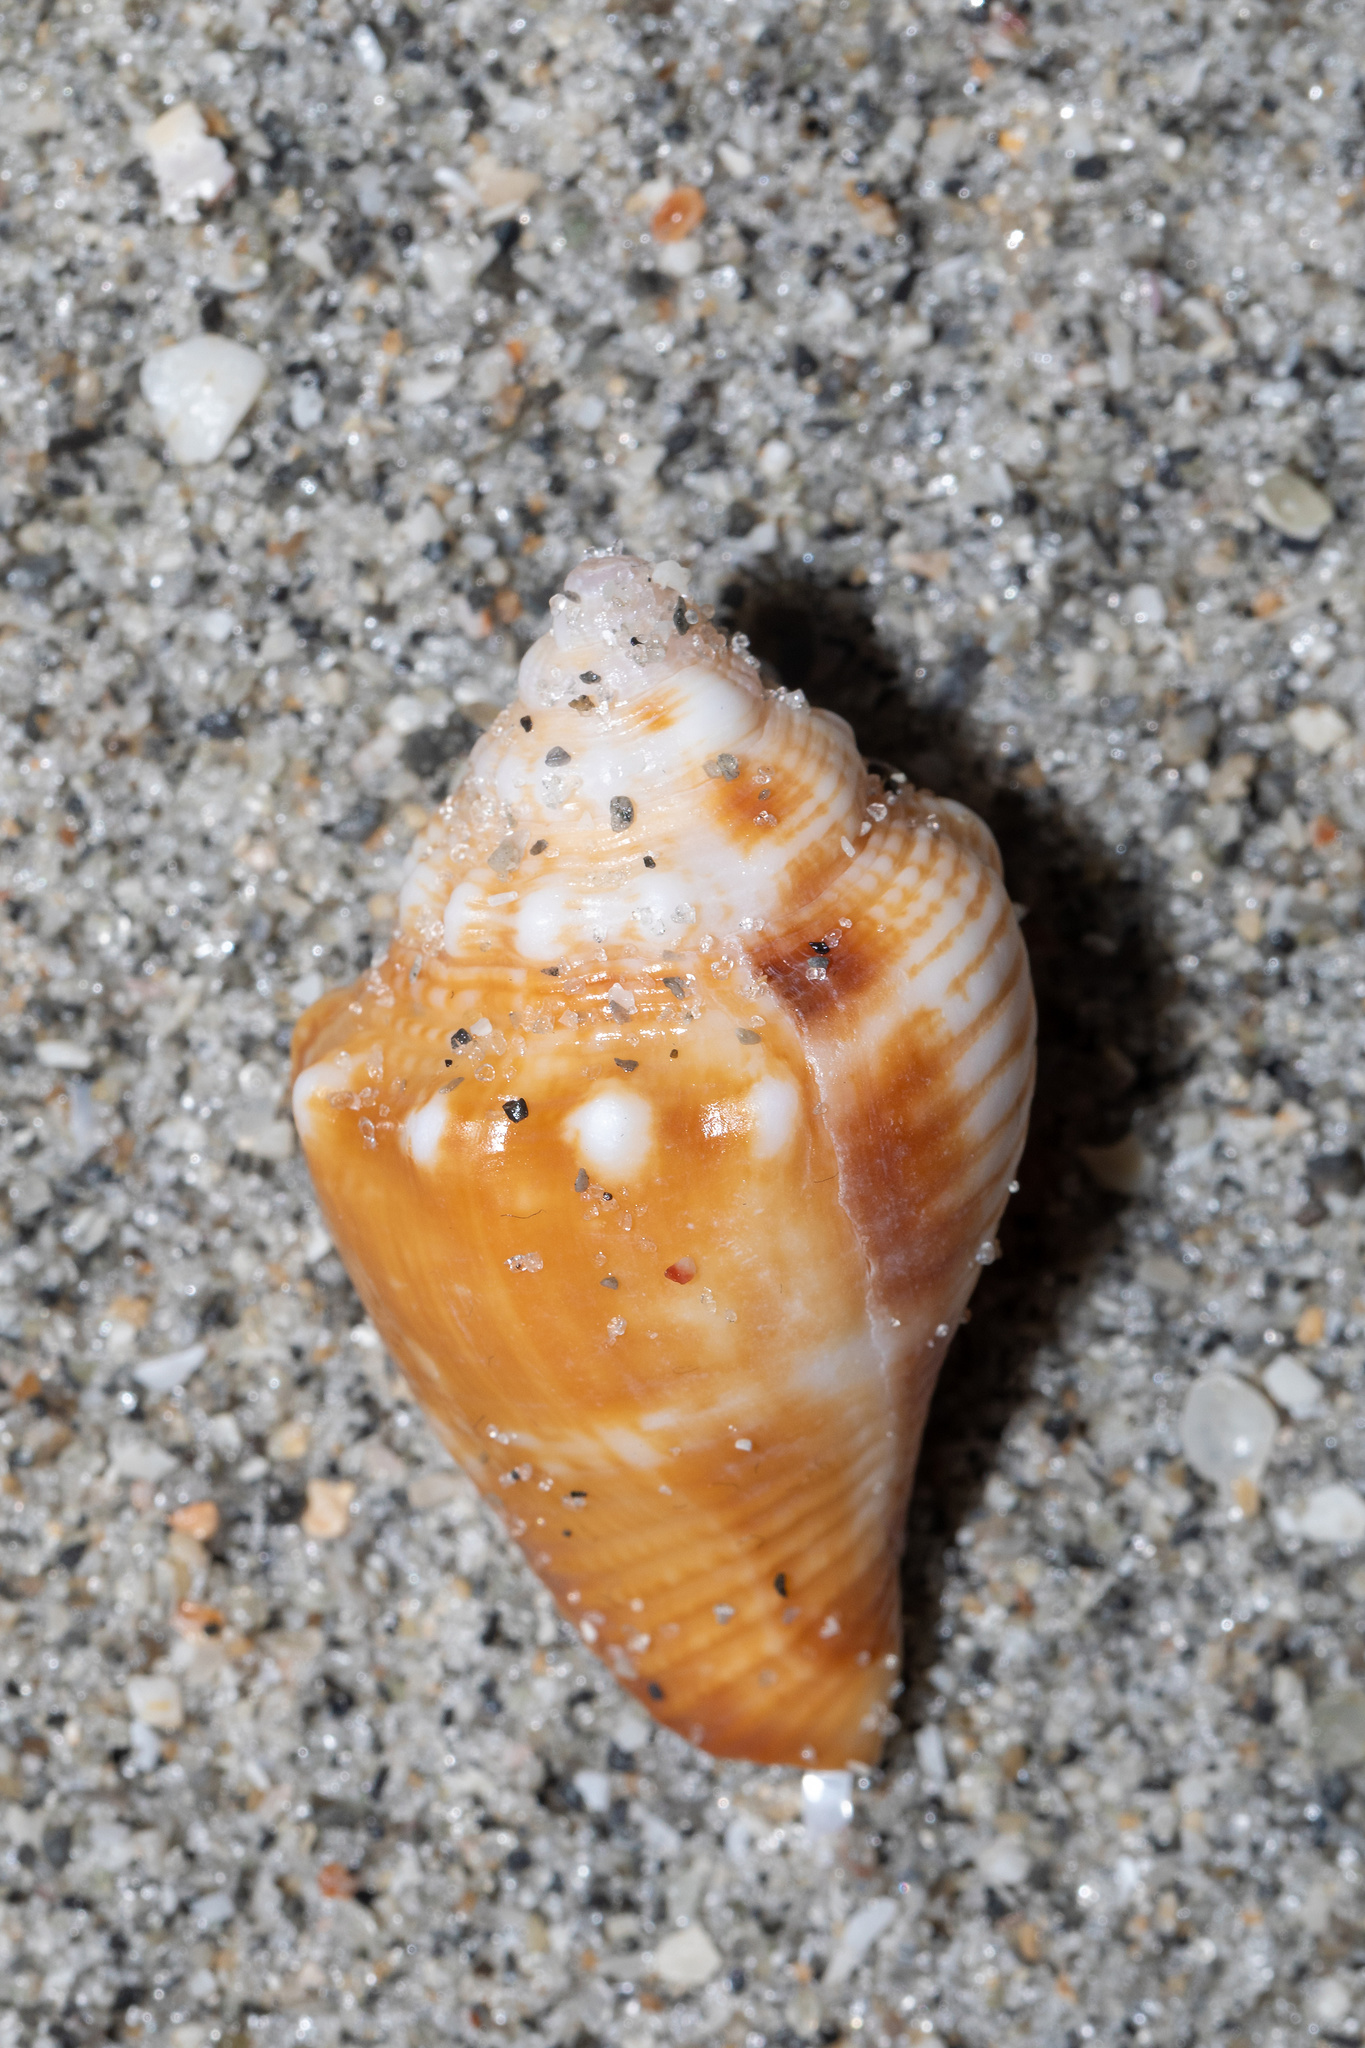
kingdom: Animalia
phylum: Mollusca
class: Gastropoda
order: Littorinimorpha
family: Strombidae
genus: Strombus
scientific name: Strombus alatus
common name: Florida fighting conch
